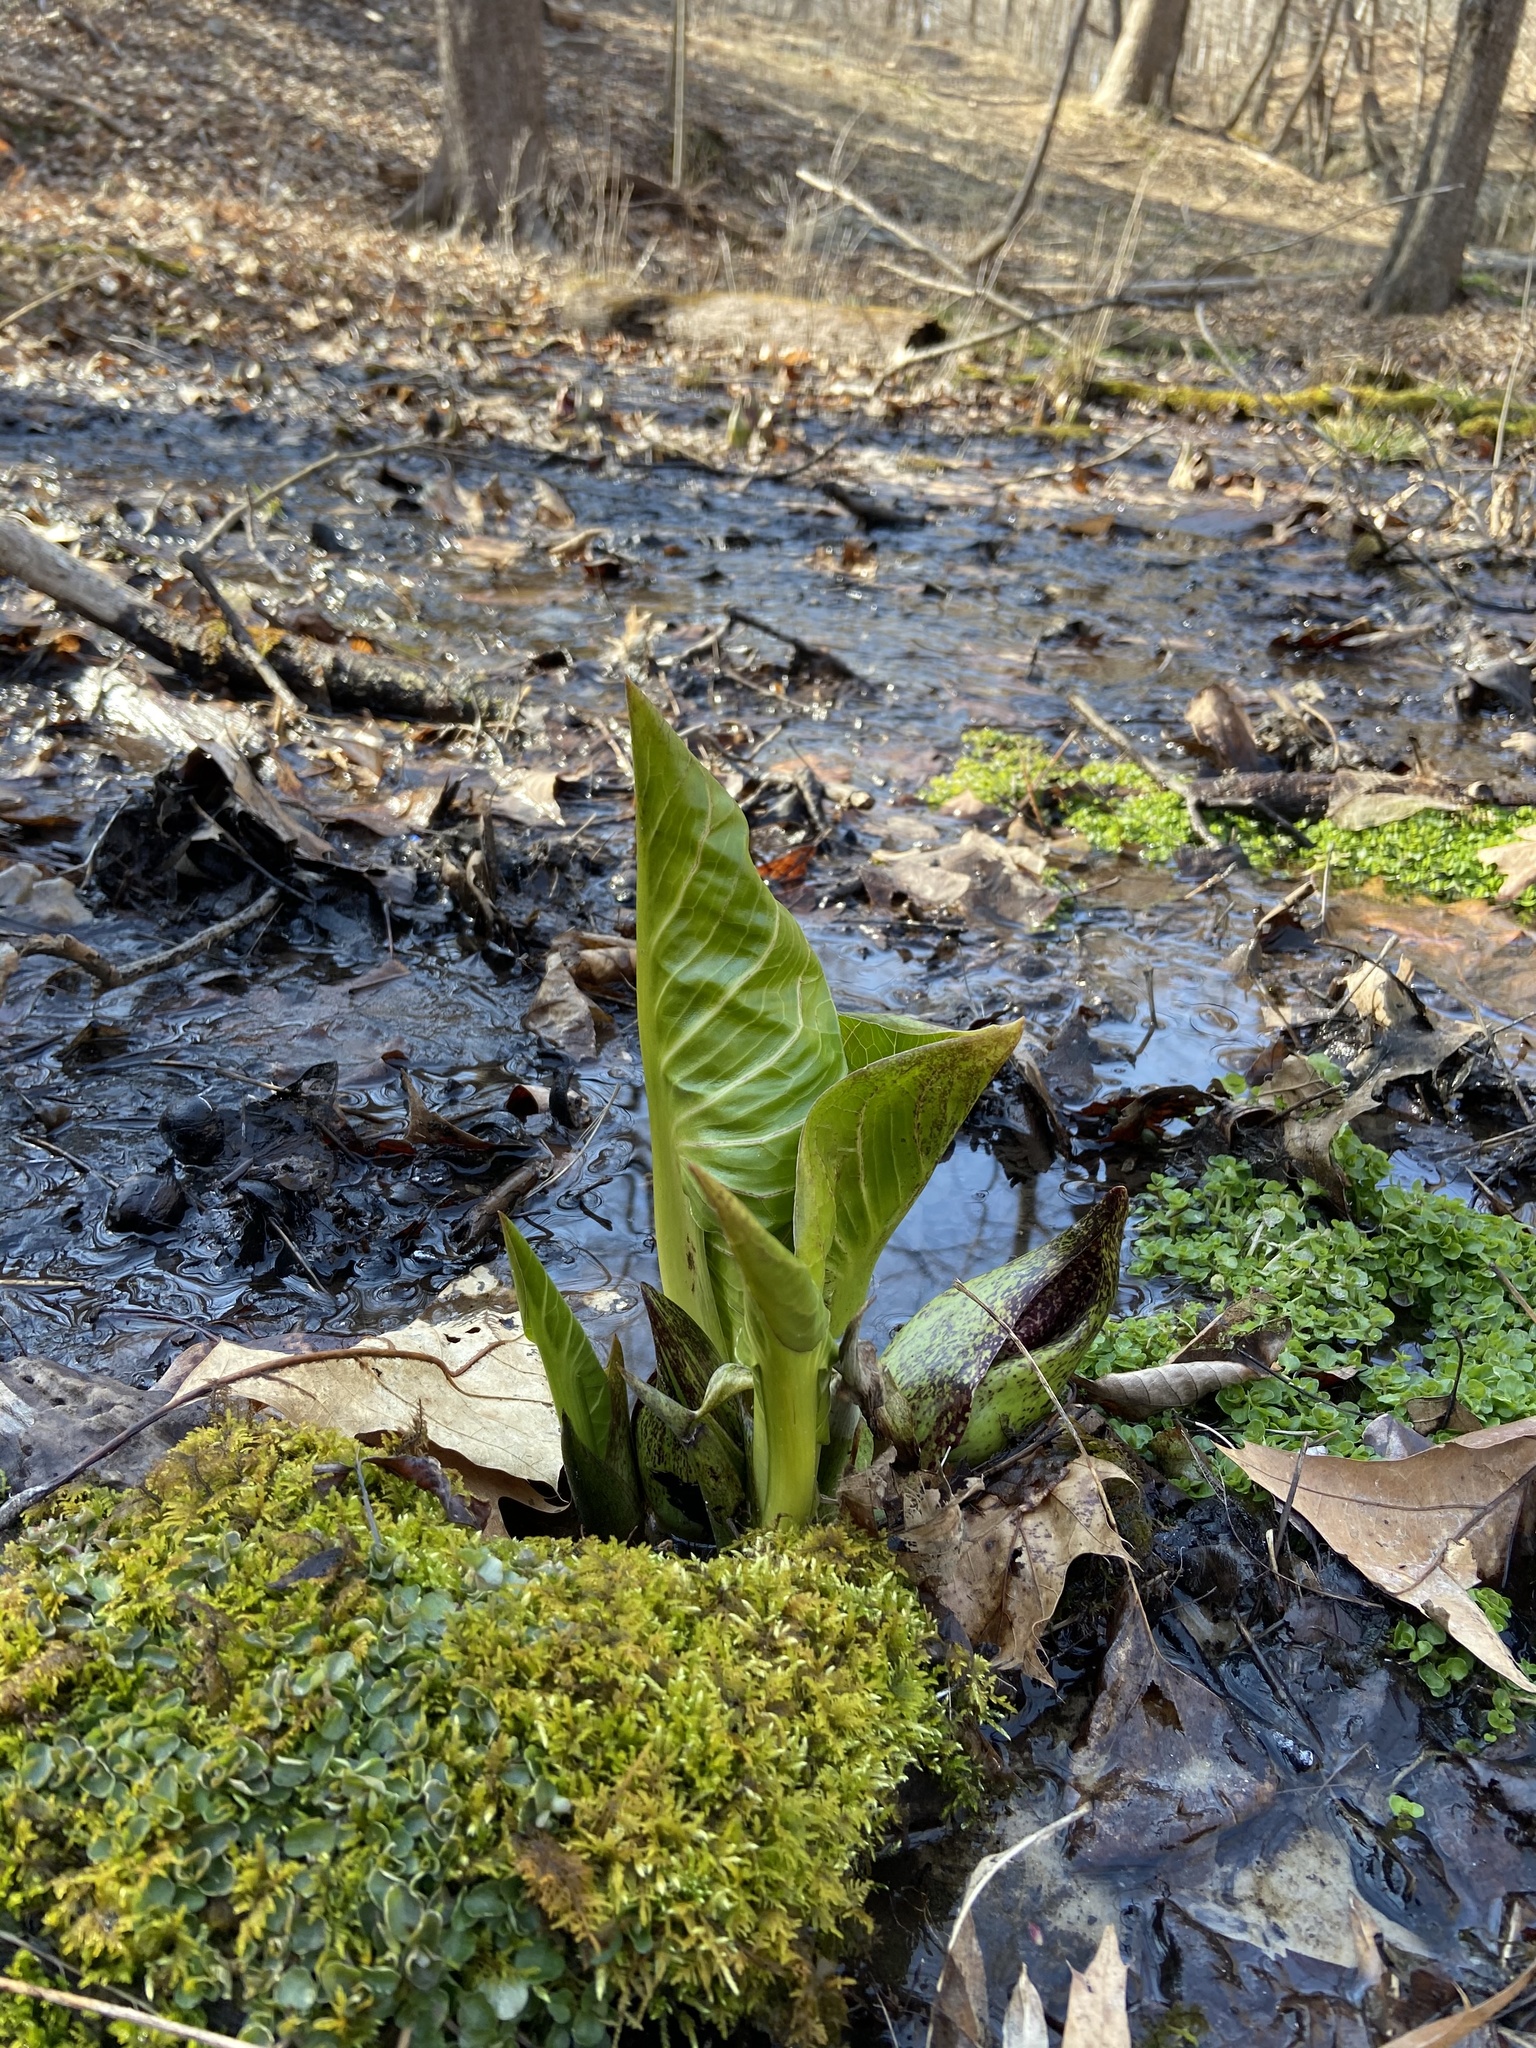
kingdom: Plantae
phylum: Tracheophyta
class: Liliopsida
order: Alismatales
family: Araceae
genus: Symplocarpus
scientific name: Symplocarpus foetidus
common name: Eastern skunk cabbage
